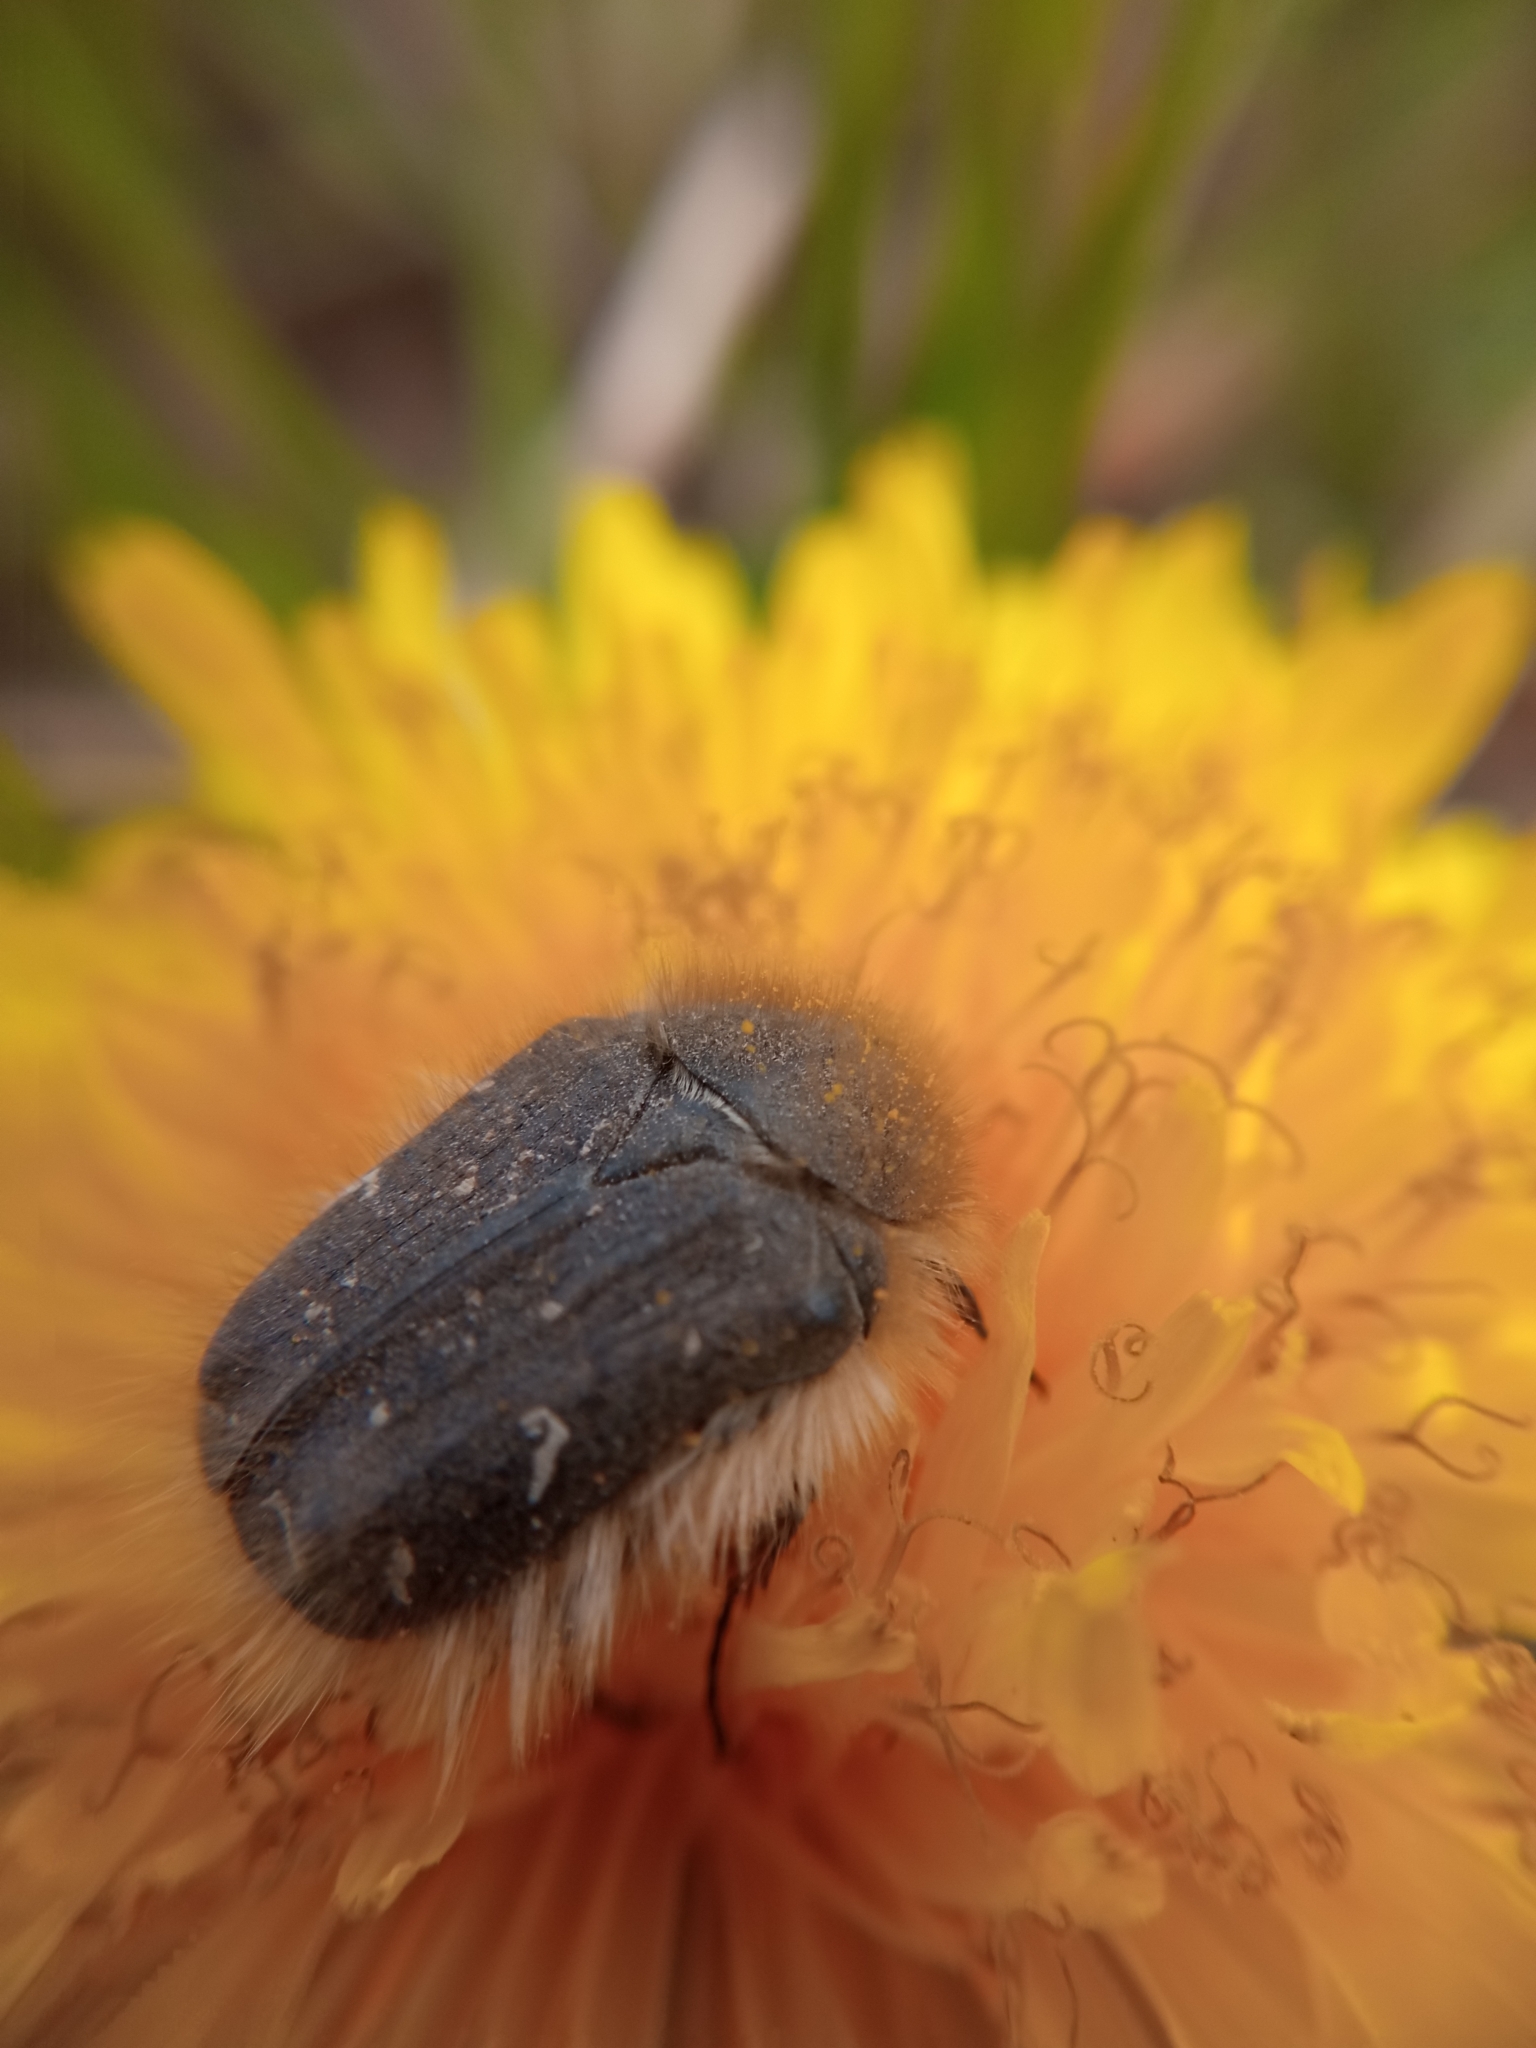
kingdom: Animalia
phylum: Arthropoda
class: Insecta
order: Coleoptera
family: Scarabaeidae
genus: Tropinota
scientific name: Tropinota hirta
